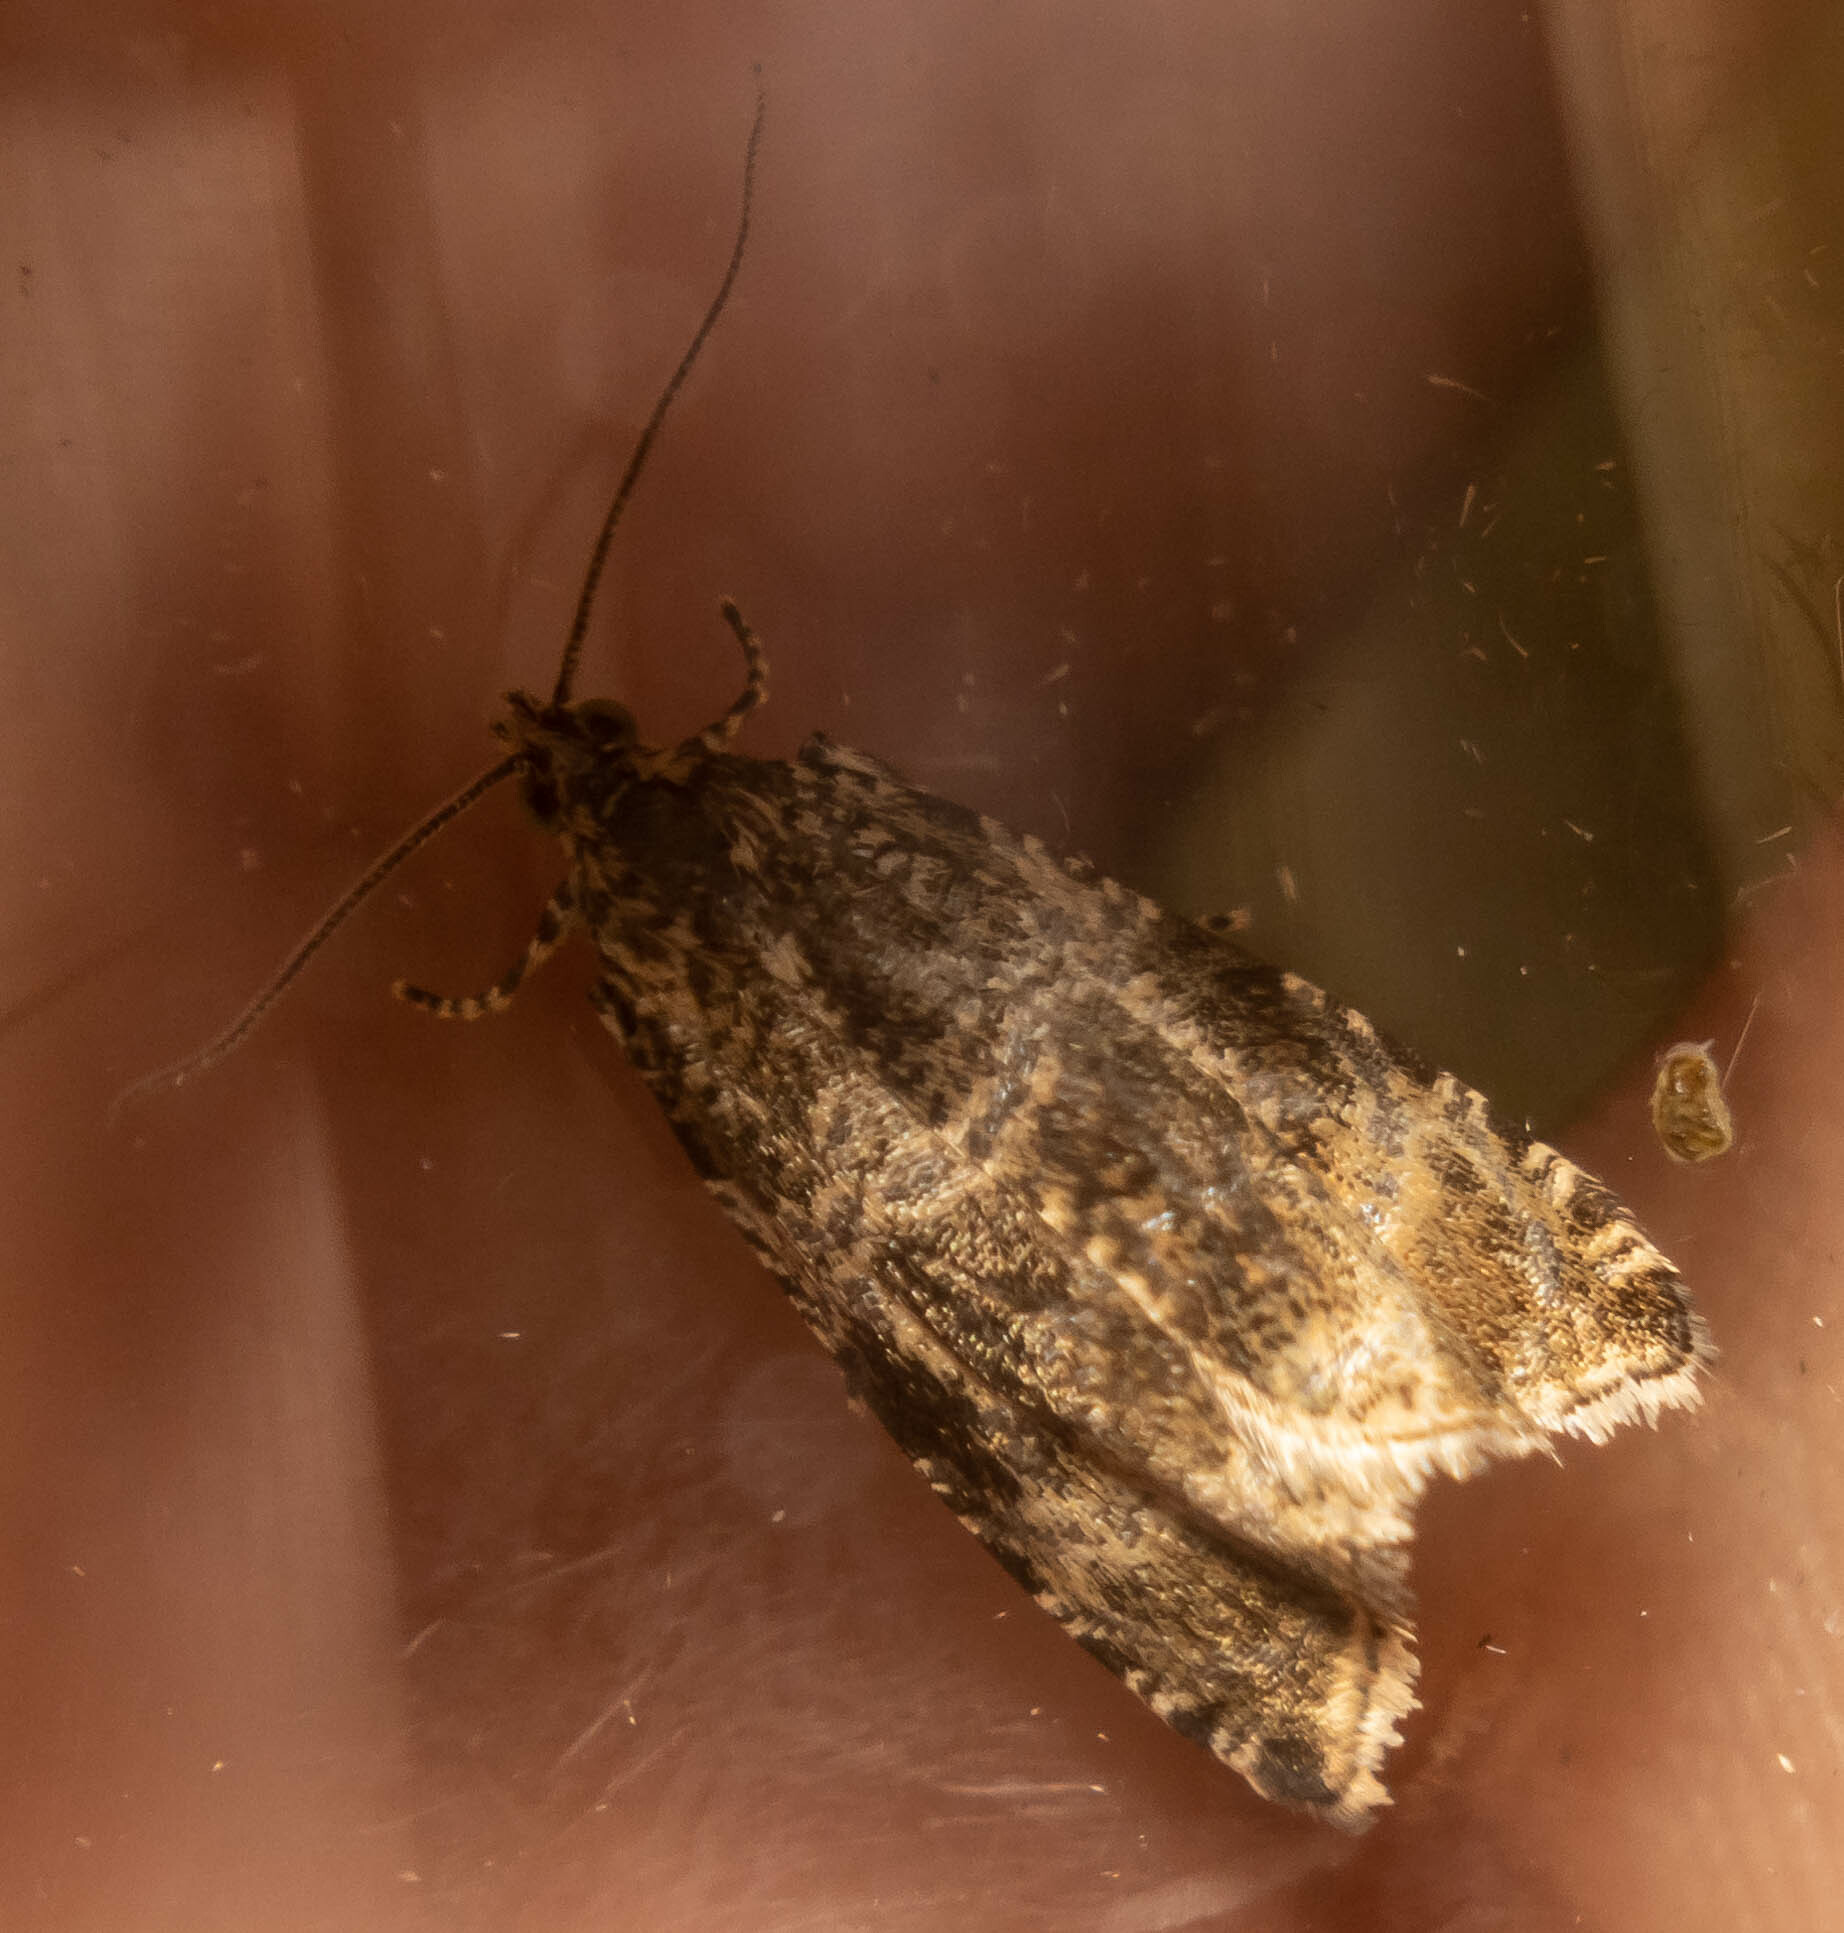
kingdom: Animalia
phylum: Arthropoda
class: Insecta
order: Lepidoptera
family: Tortricidae
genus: Syricoris
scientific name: Syricoris lacunana
